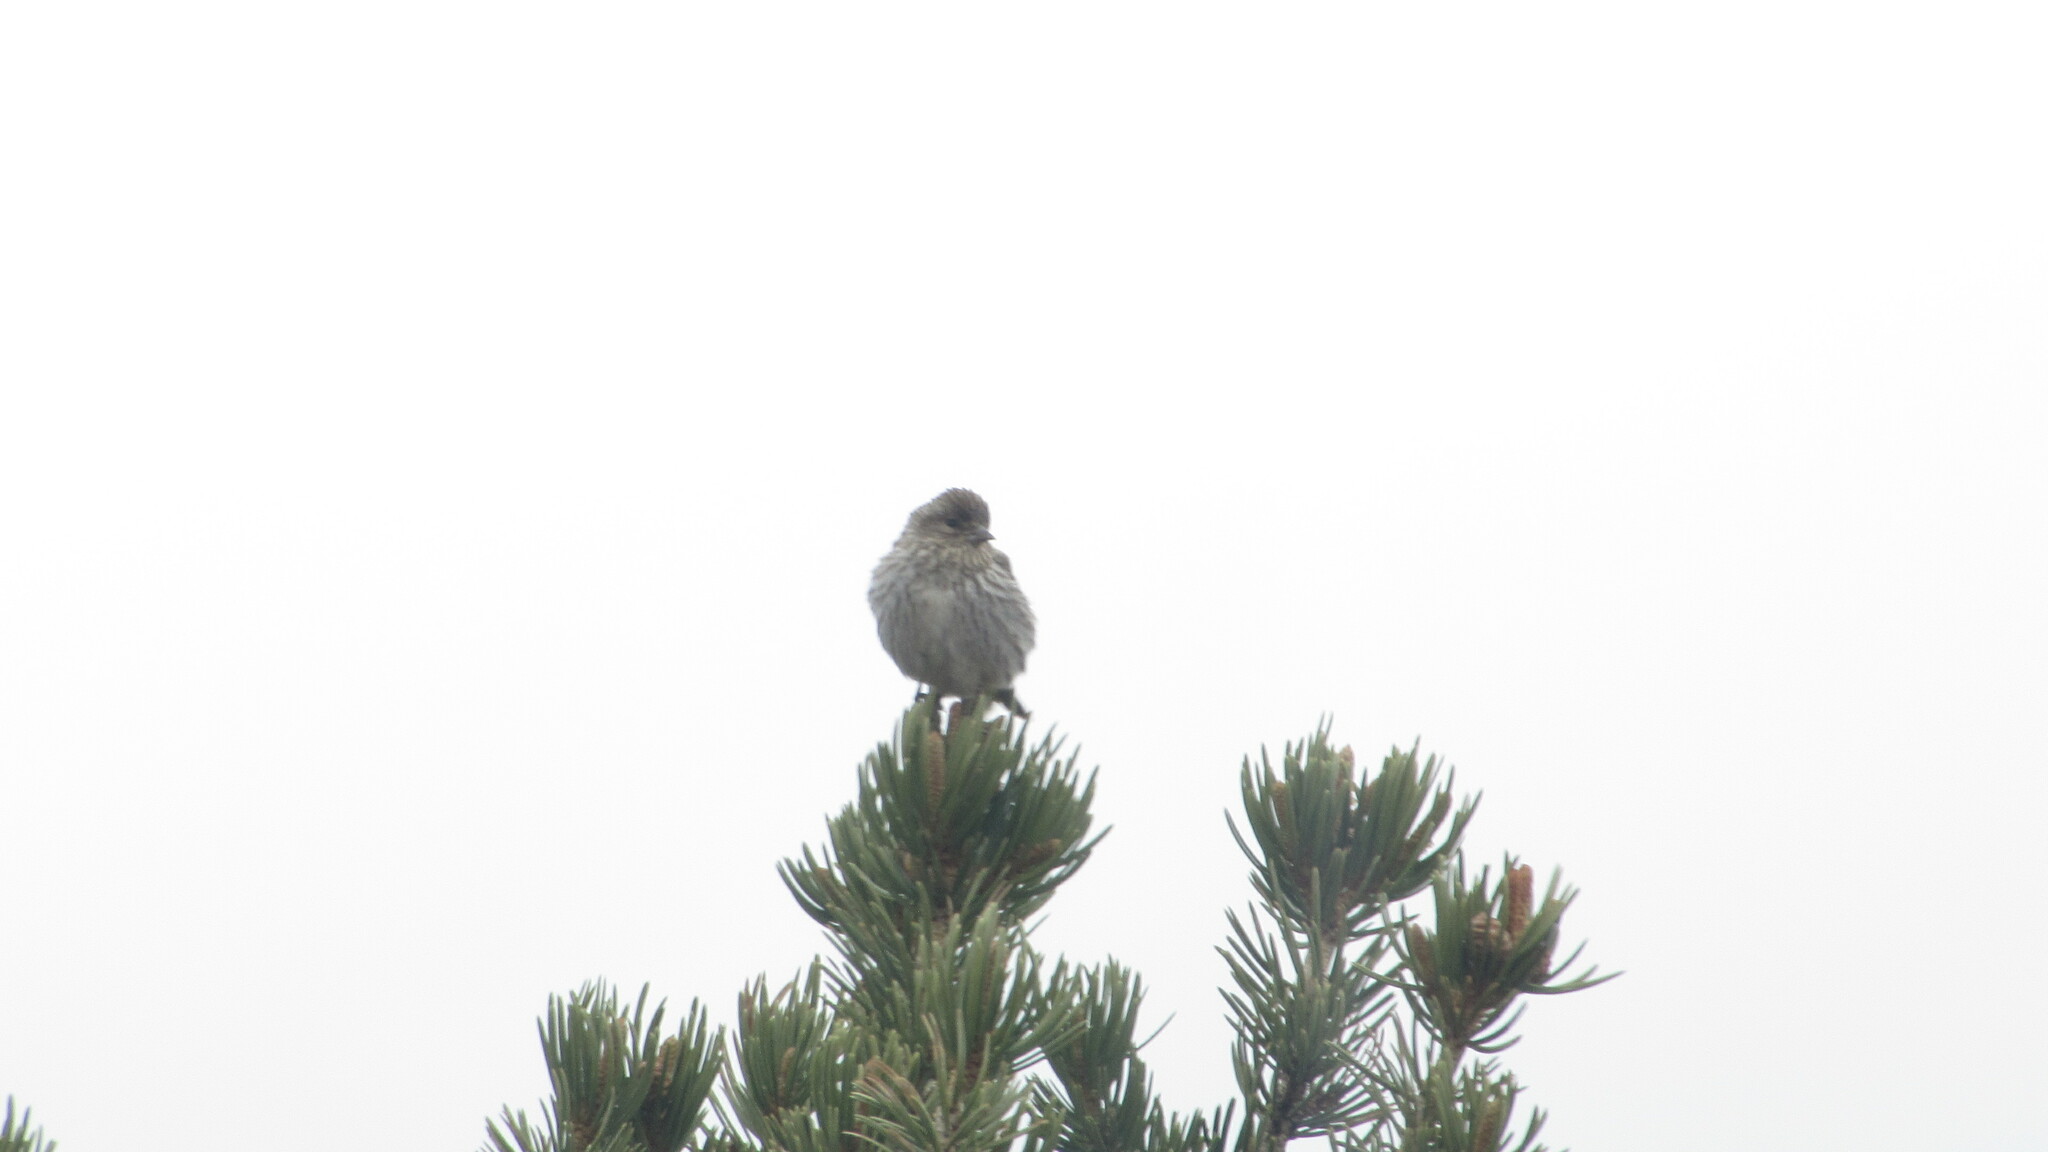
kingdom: Animalia
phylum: Chordata
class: Aves
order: Passeriformes
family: Fringillidae
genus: Haemorhous
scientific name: Haemorhous cassinii
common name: Cassin's finch
